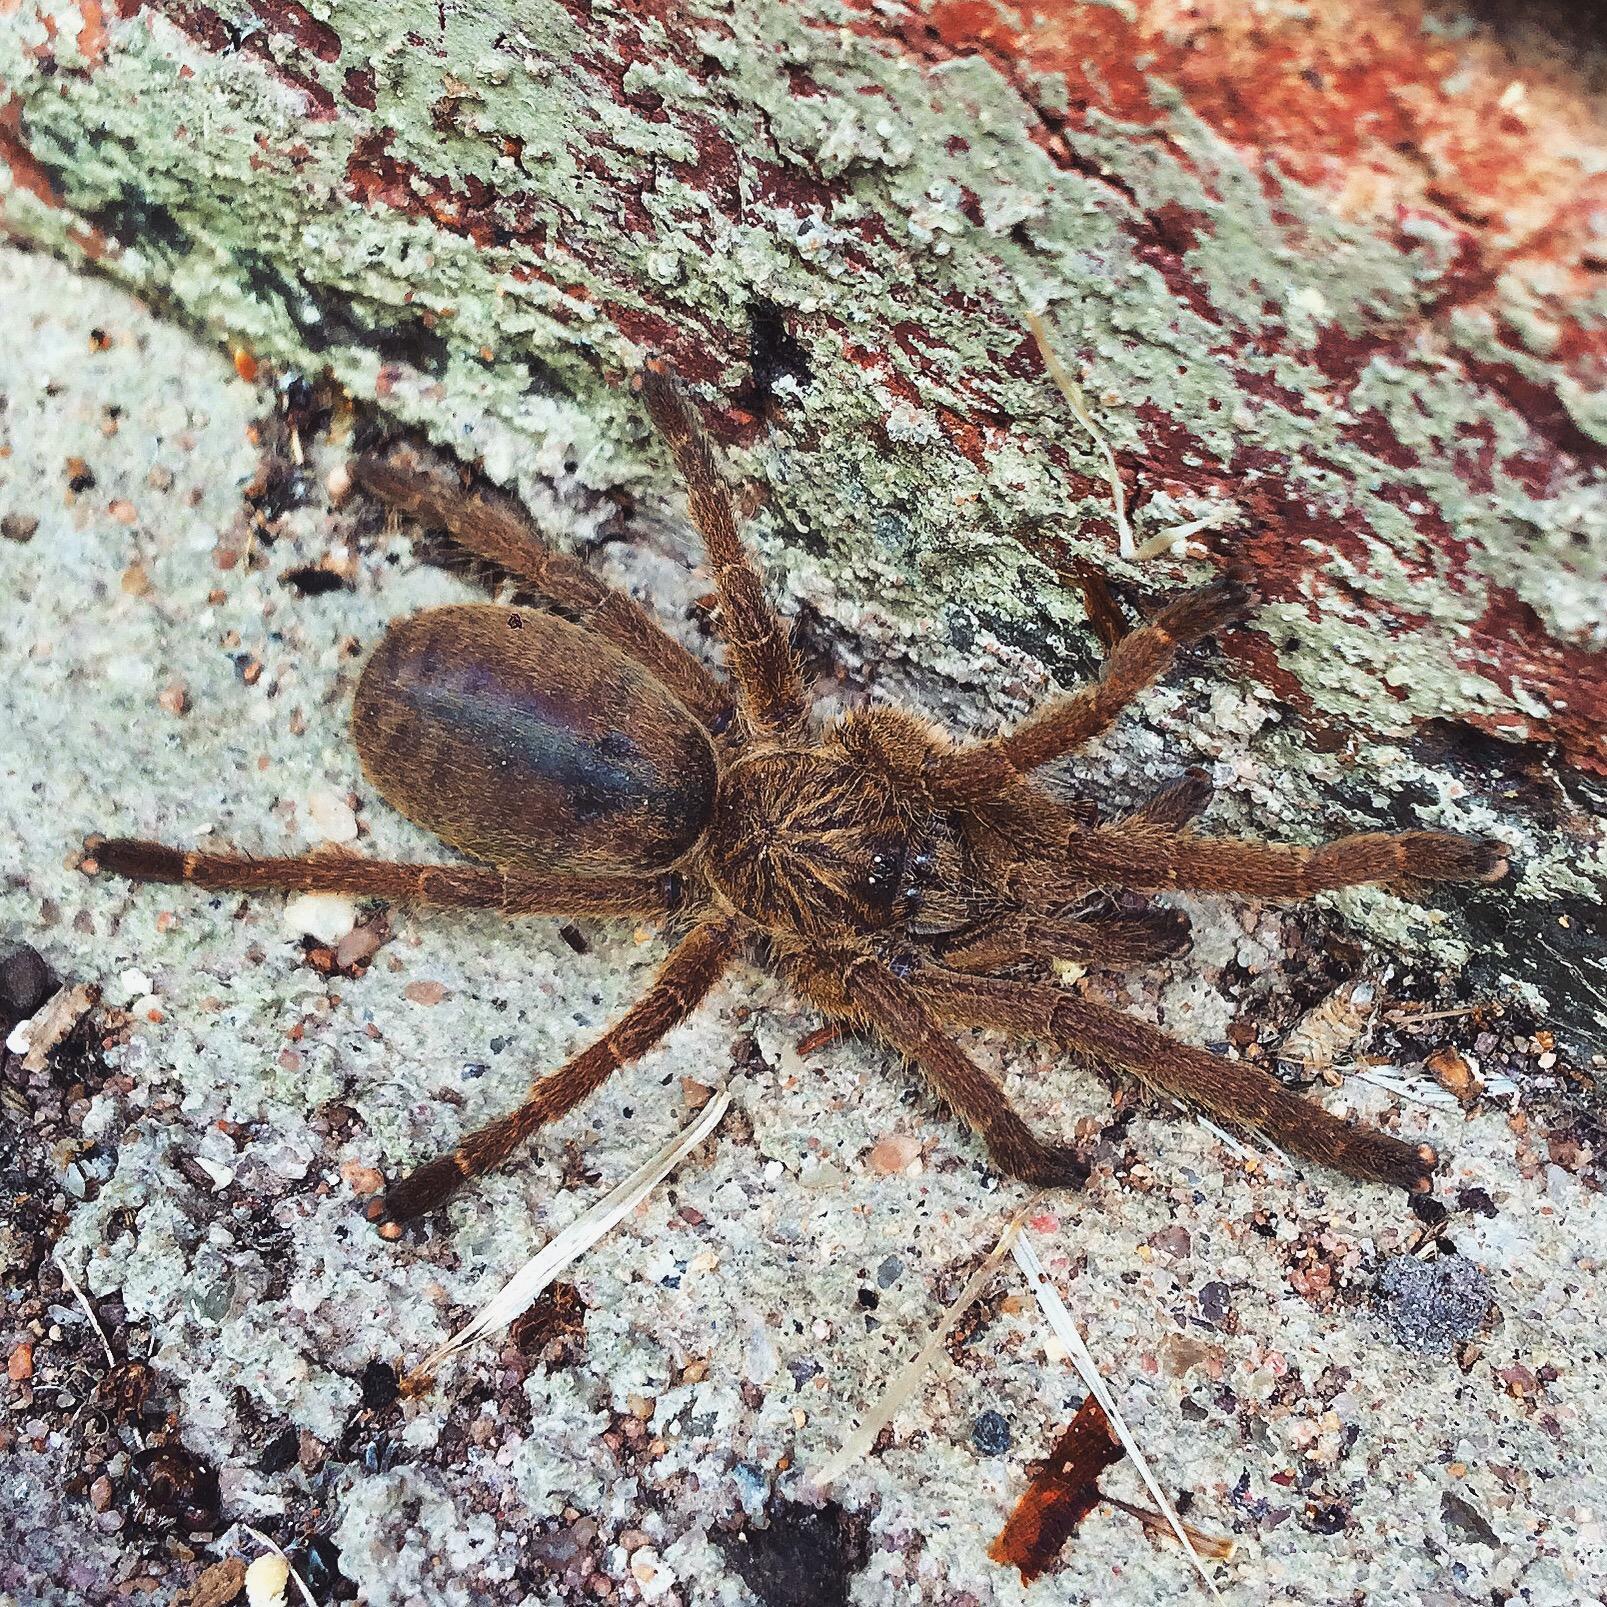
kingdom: Animalia
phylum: Arthropoda
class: Arachnida
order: Araneae
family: Theraphosidae
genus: Harpactira
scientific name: Harpactira curator
